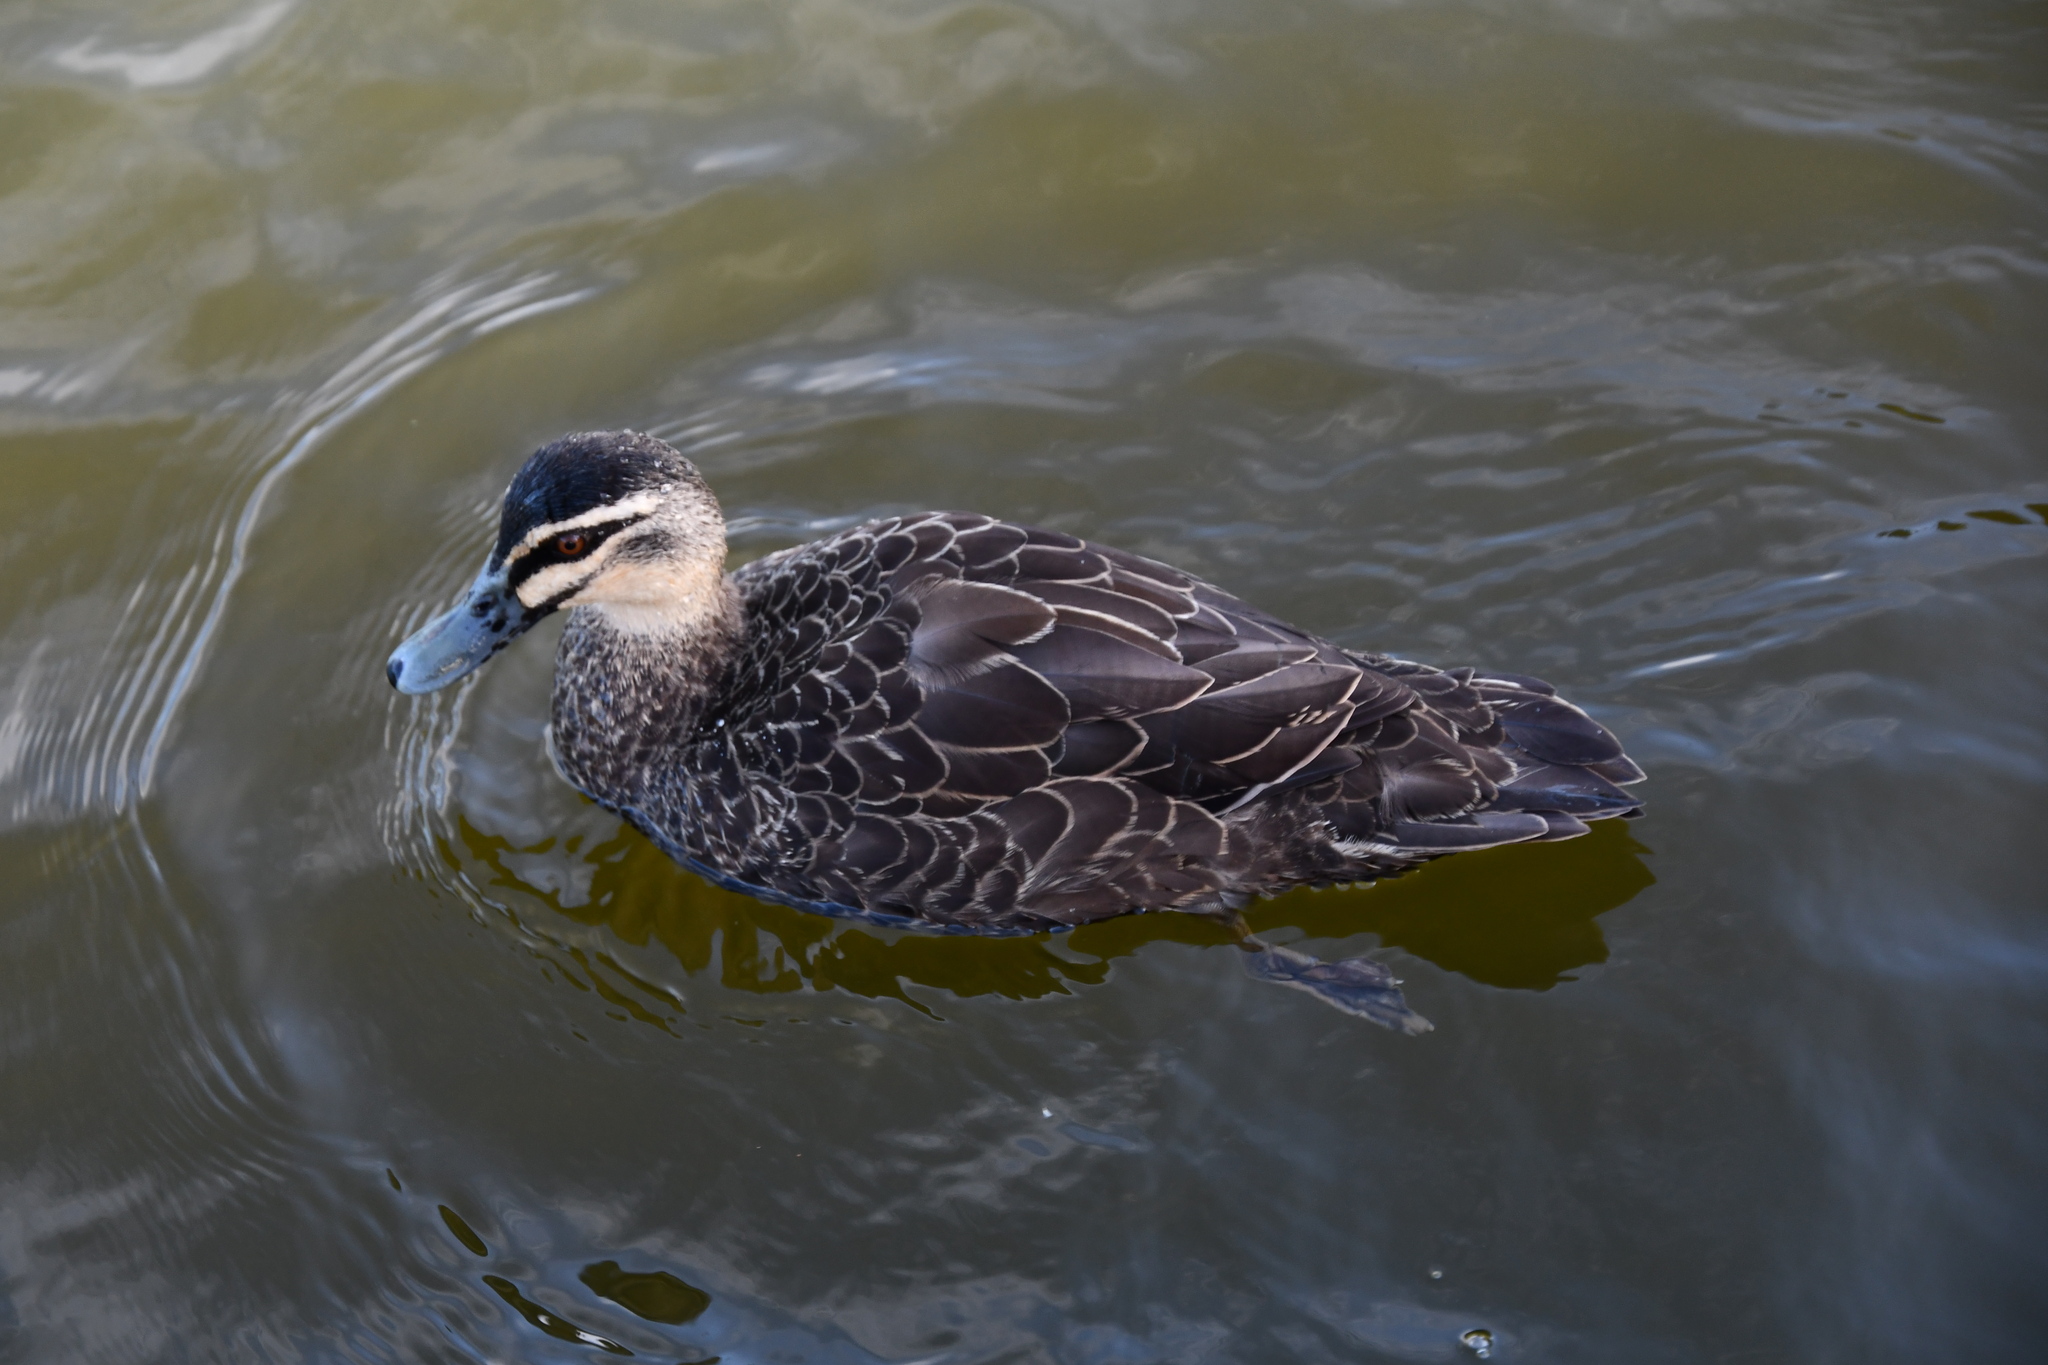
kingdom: Animalia
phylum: Chordata
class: Aves
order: Anseriformes
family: Anatidae
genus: Anas
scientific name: Anas superciliosa
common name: Pacific black duck
